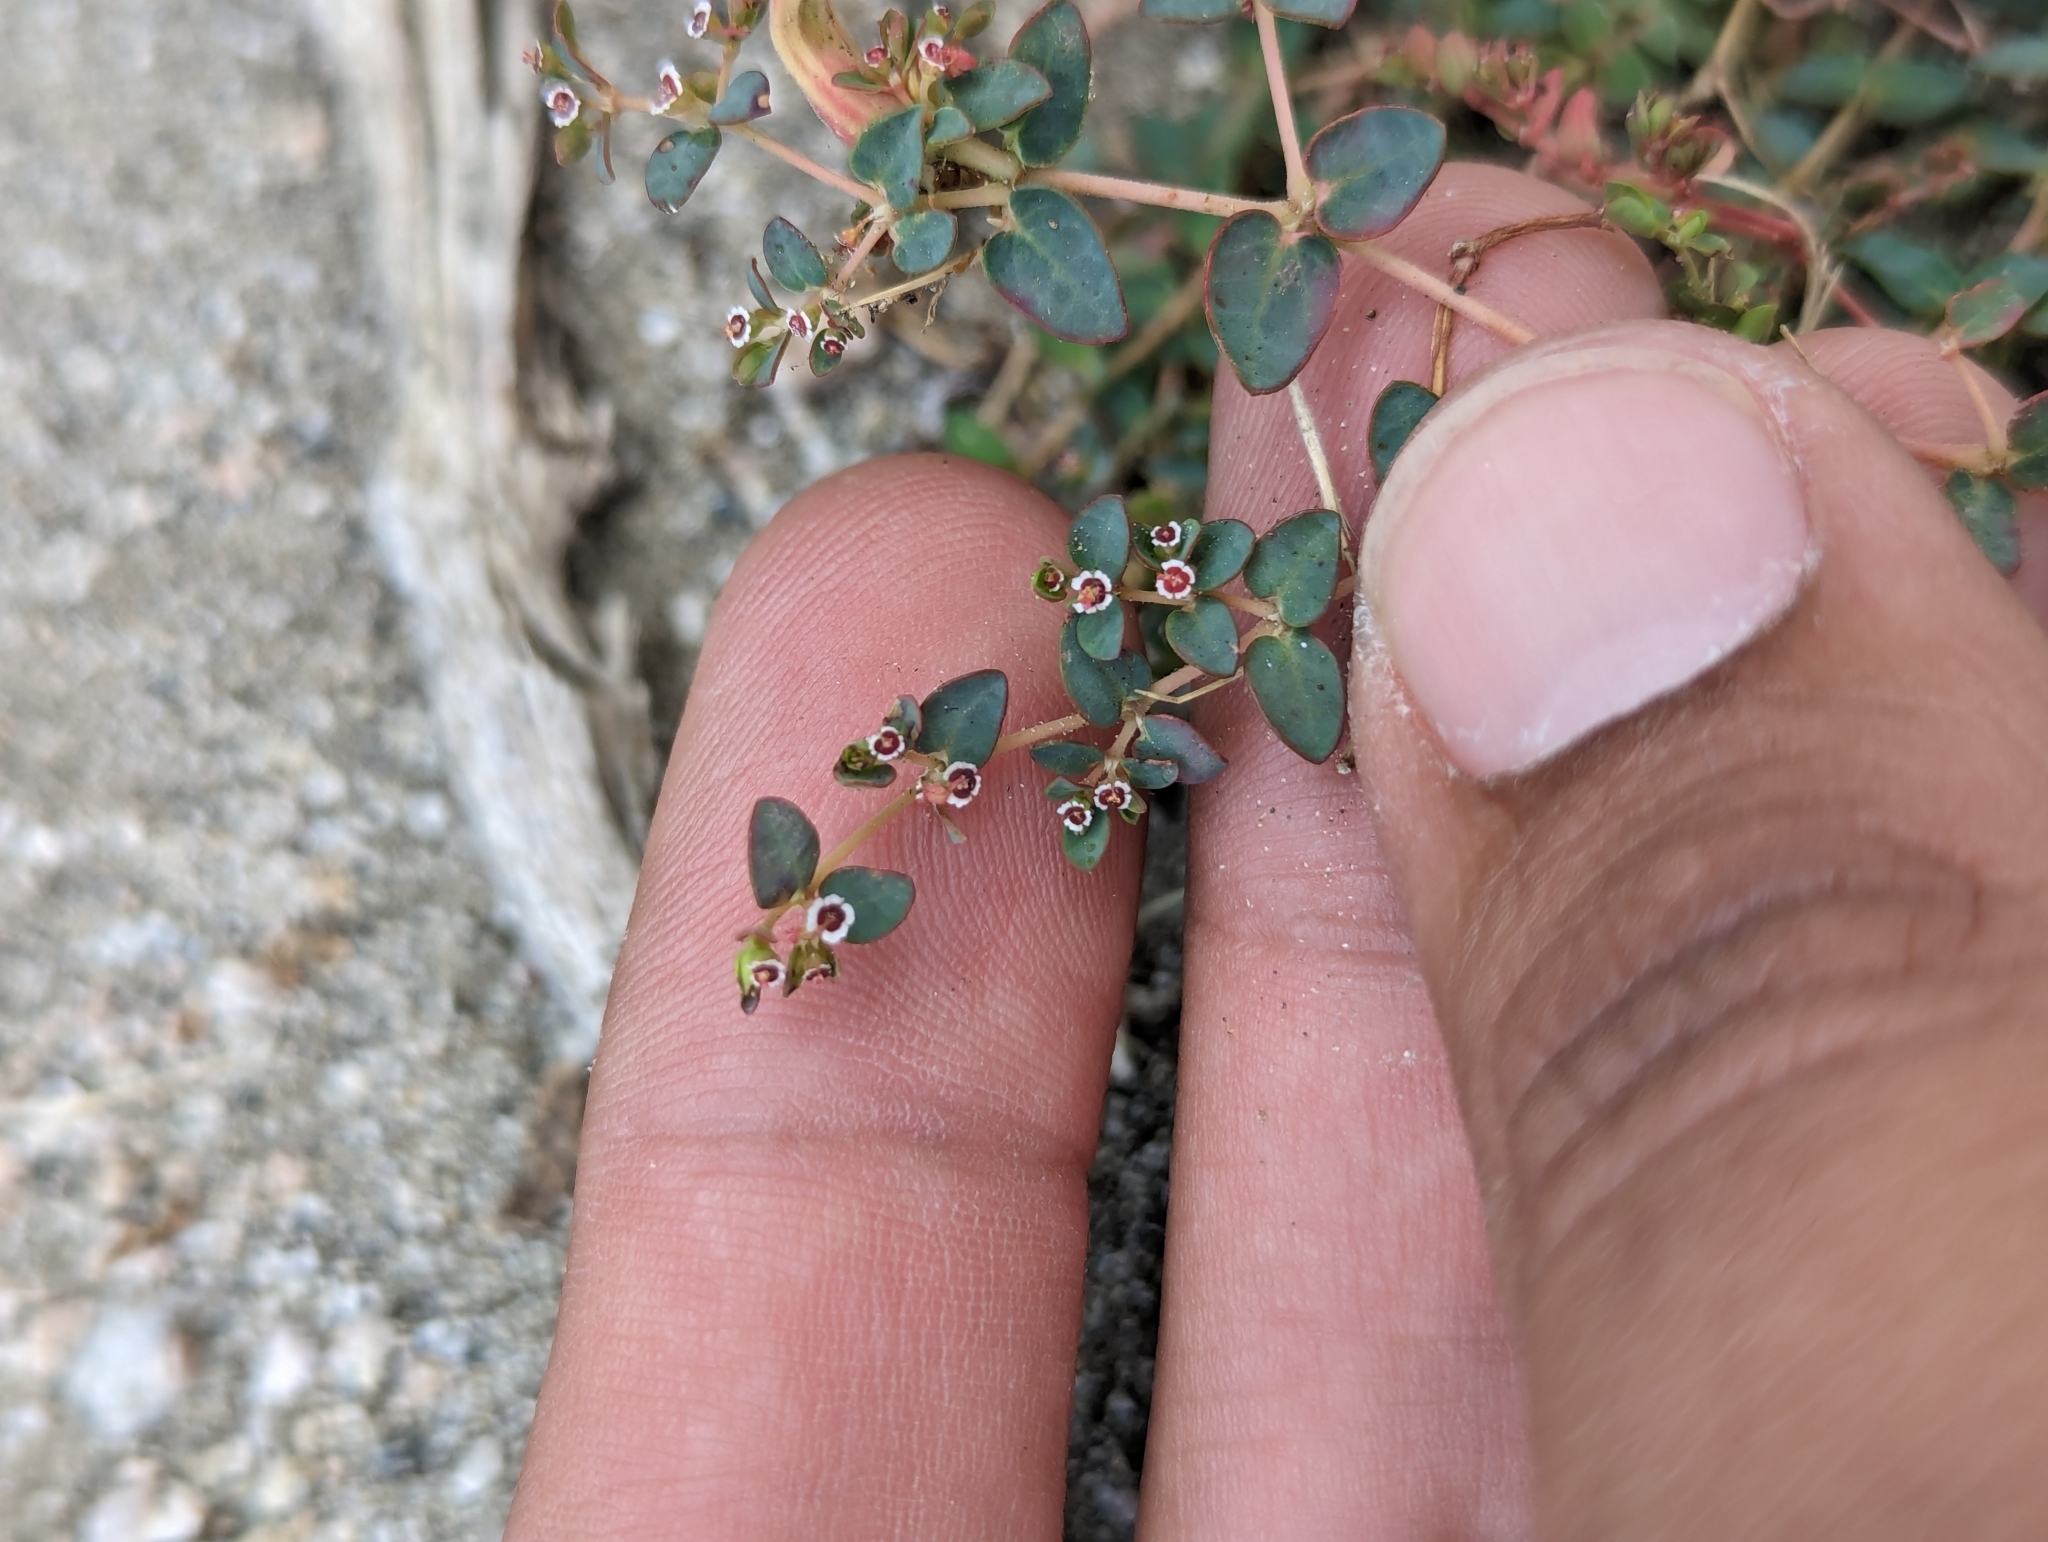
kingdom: Plantae
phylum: Tracheophyta
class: Magnoliopsida
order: Malpighiales
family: Euphorbiaceae
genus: Euphorbia
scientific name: Euphorbia polycarpa
